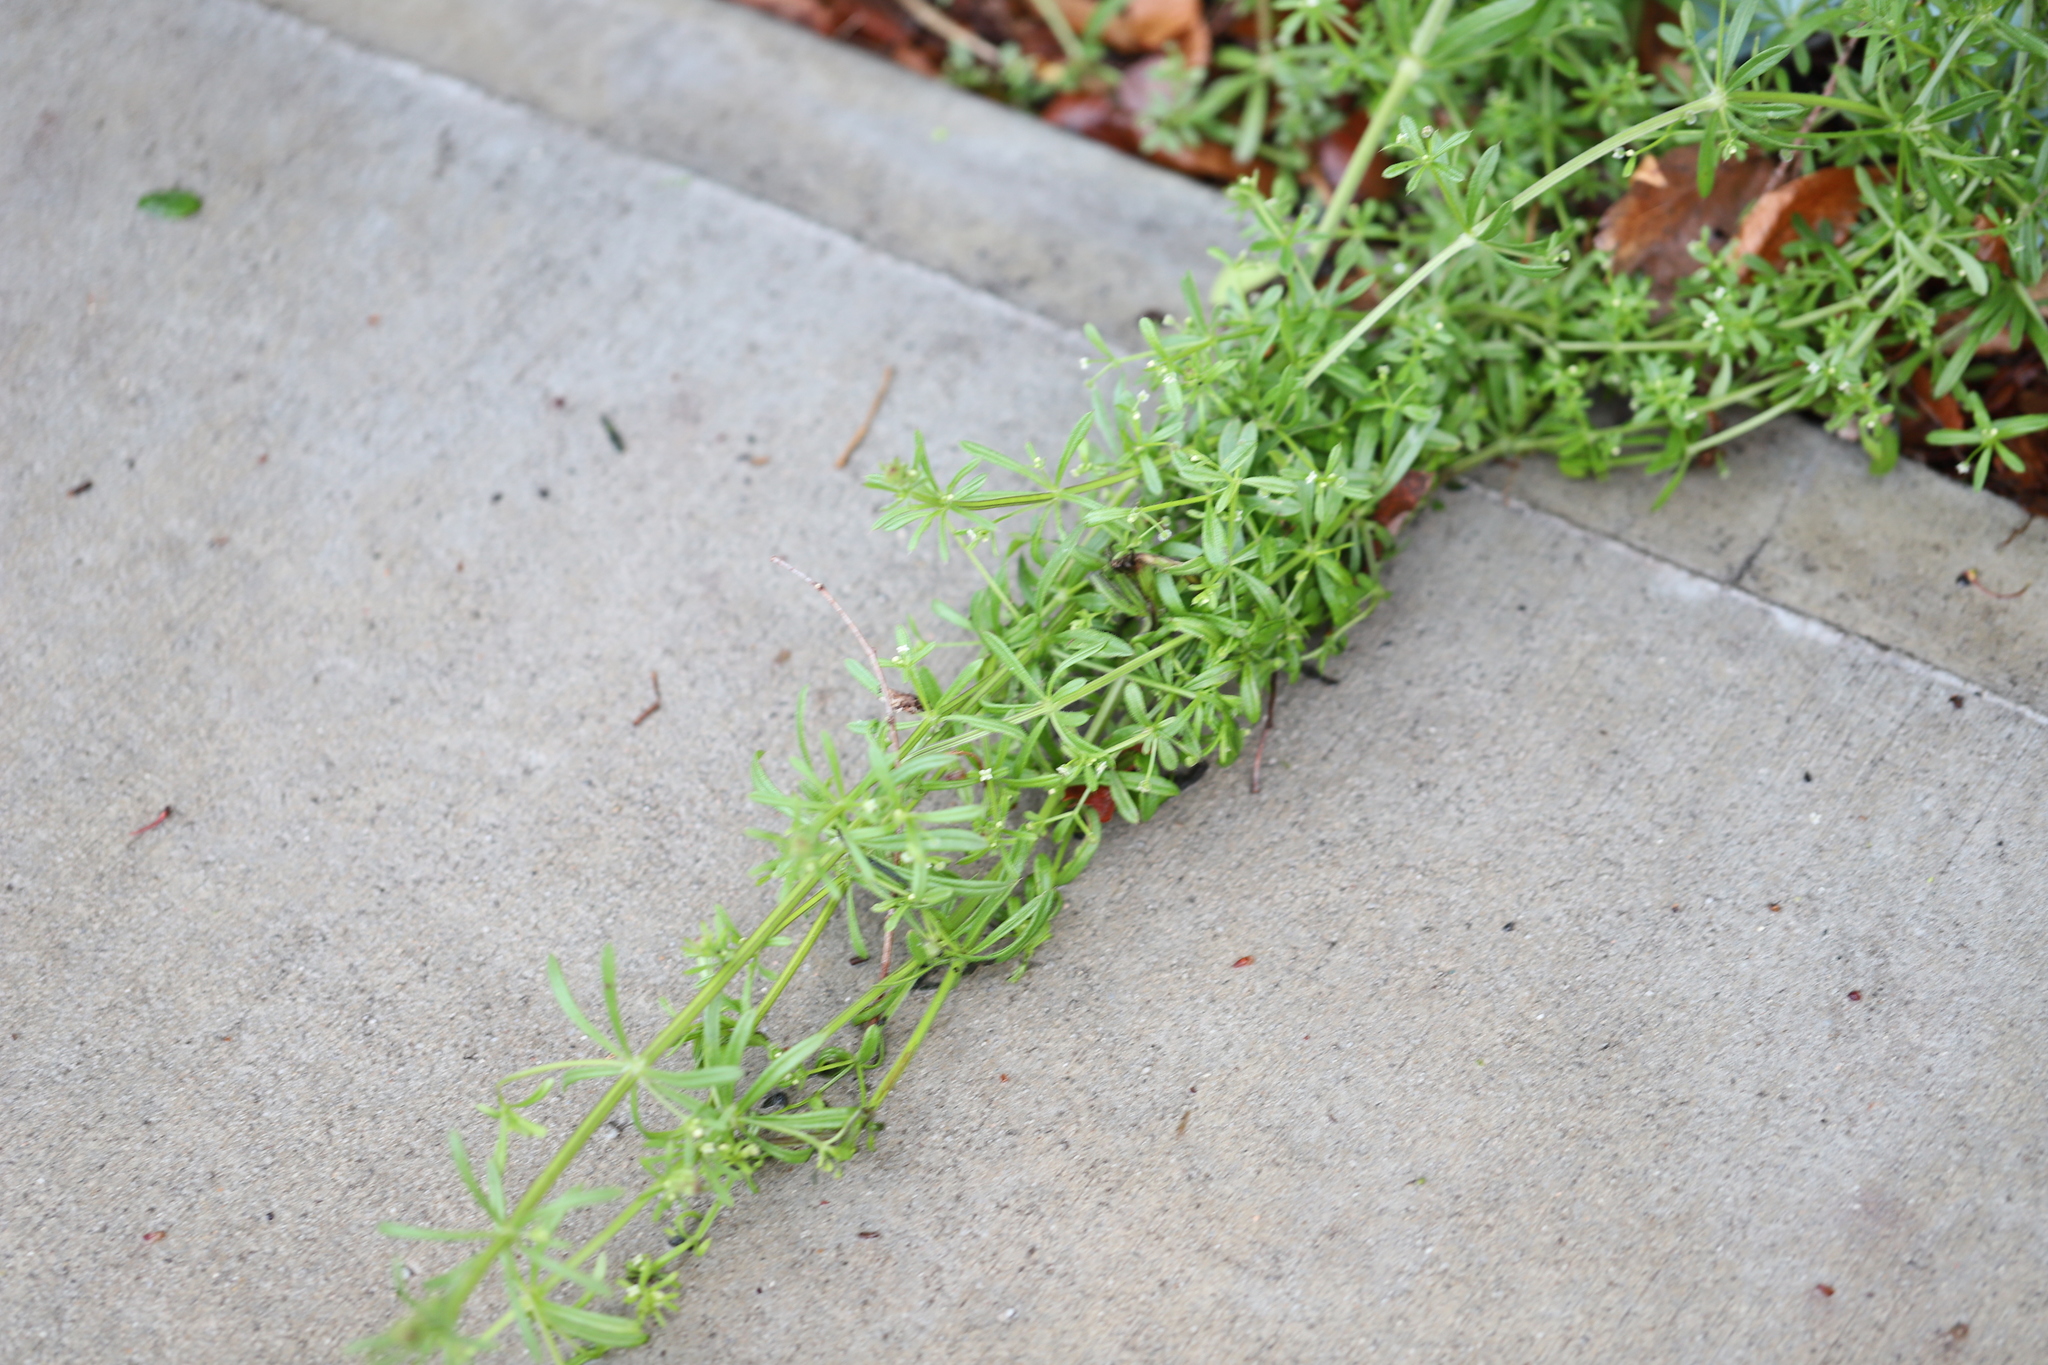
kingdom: Plantae
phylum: Tracheophyta
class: Magnoliopsida
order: Gentianales
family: Rubiaceae
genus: Galium
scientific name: Galium aparine
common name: Cleavers
